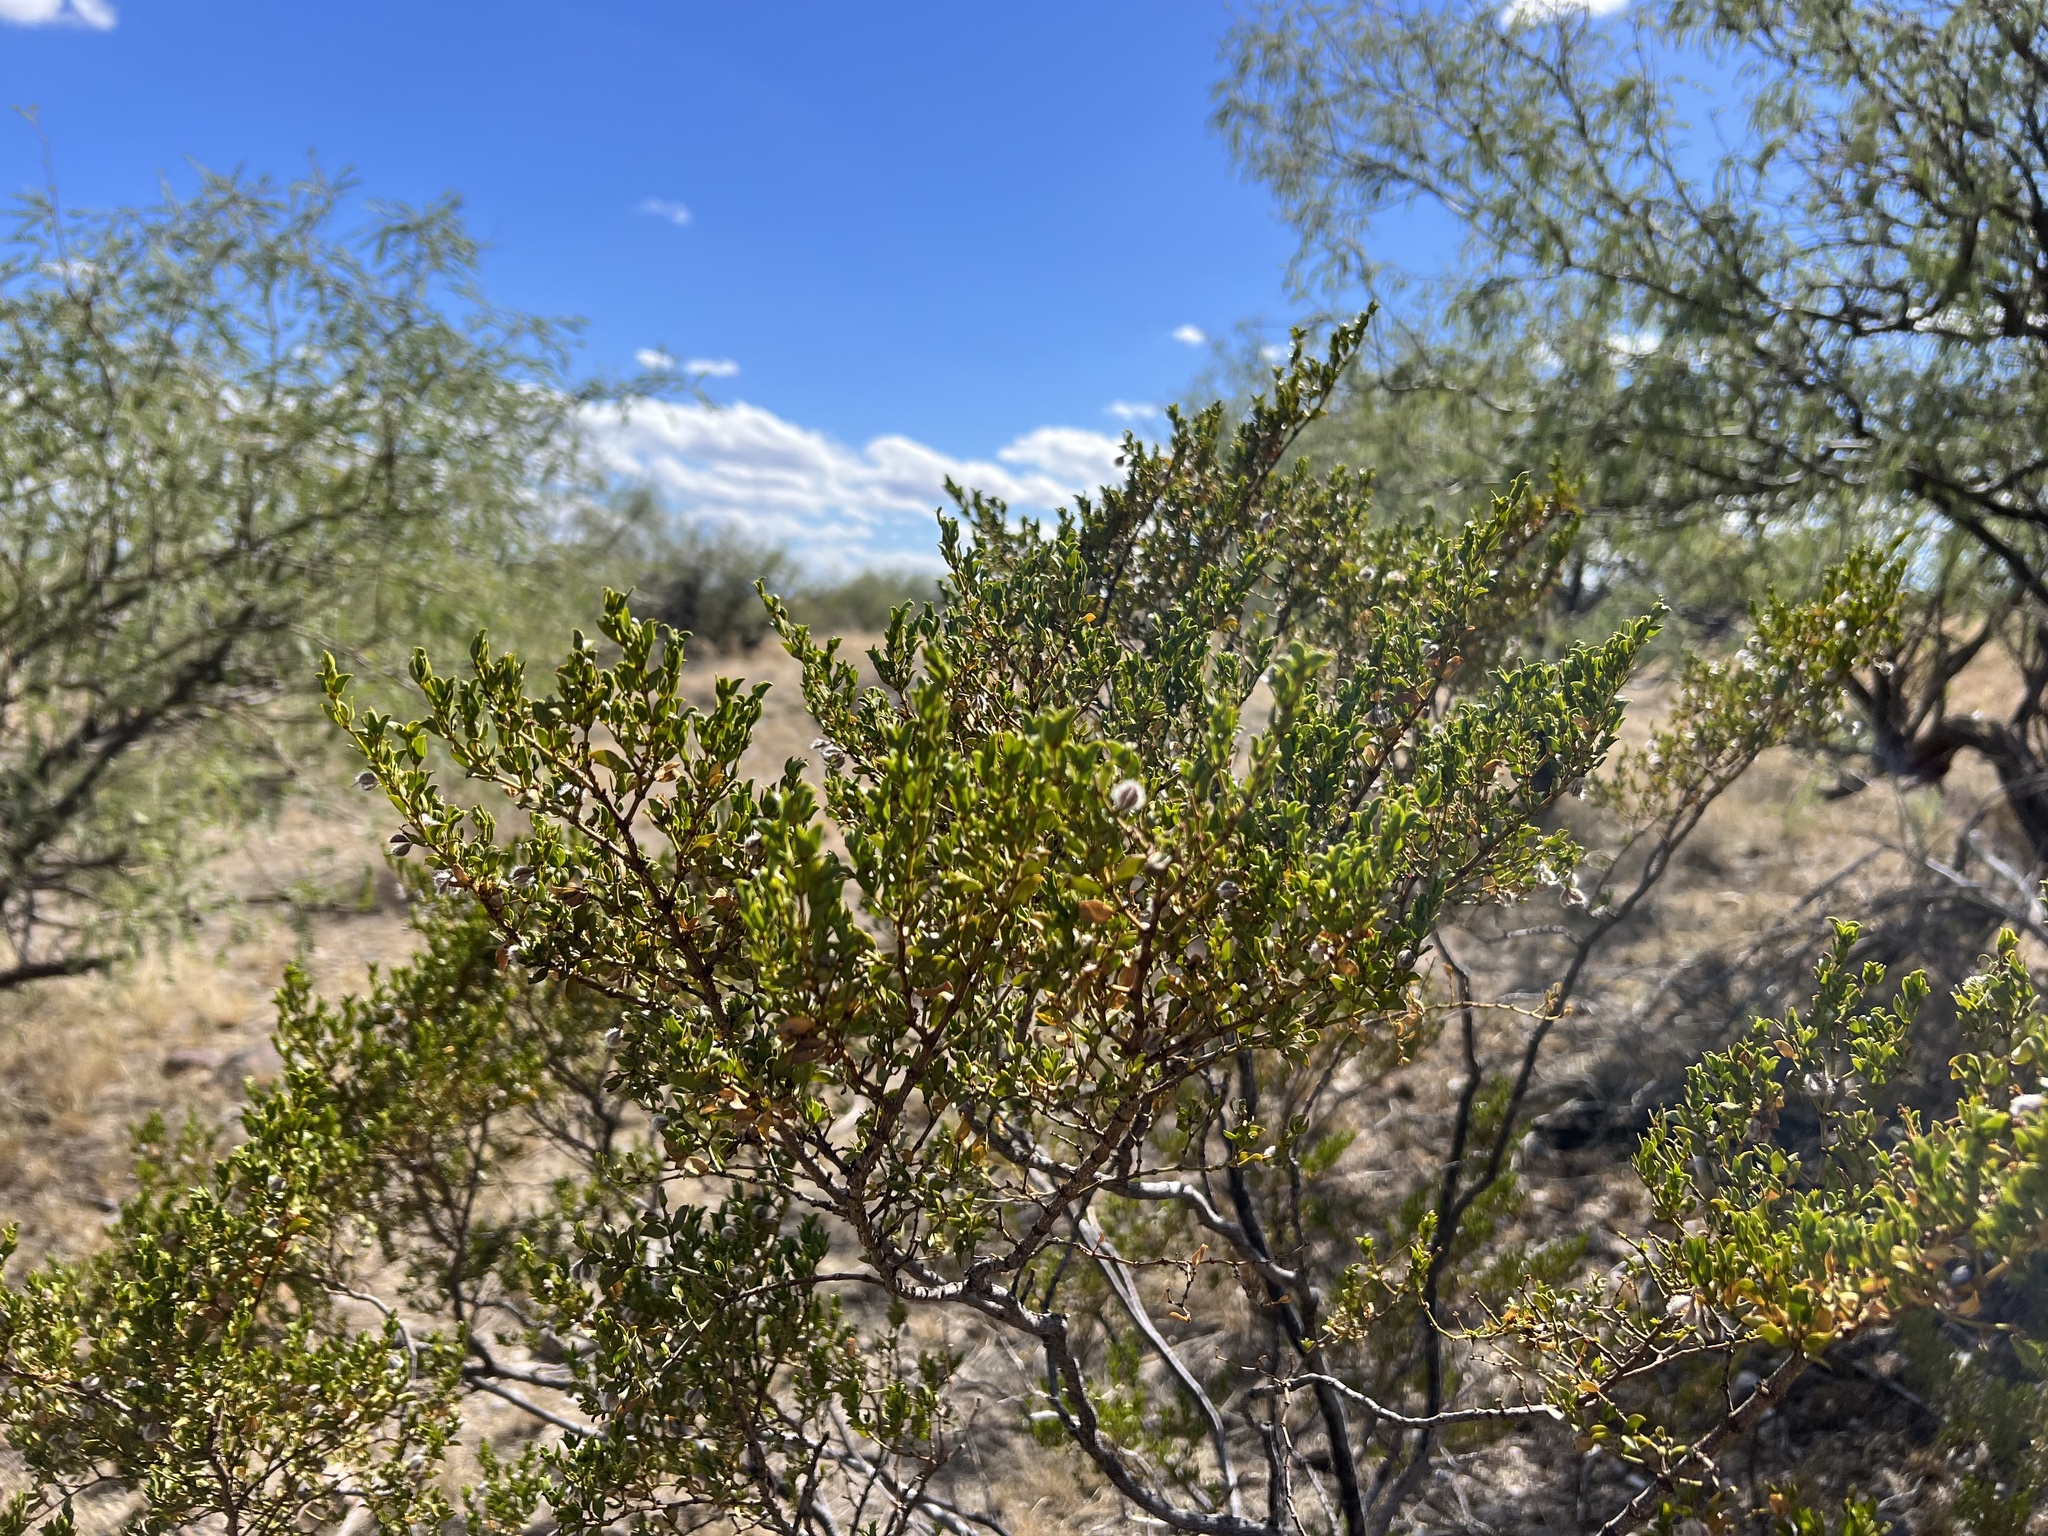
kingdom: Plantae
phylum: Tracheophyta
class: Magnoliopsida
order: Zygophyllales
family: Zygophyllaceae
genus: Larrea
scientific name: Larrea tridentata
